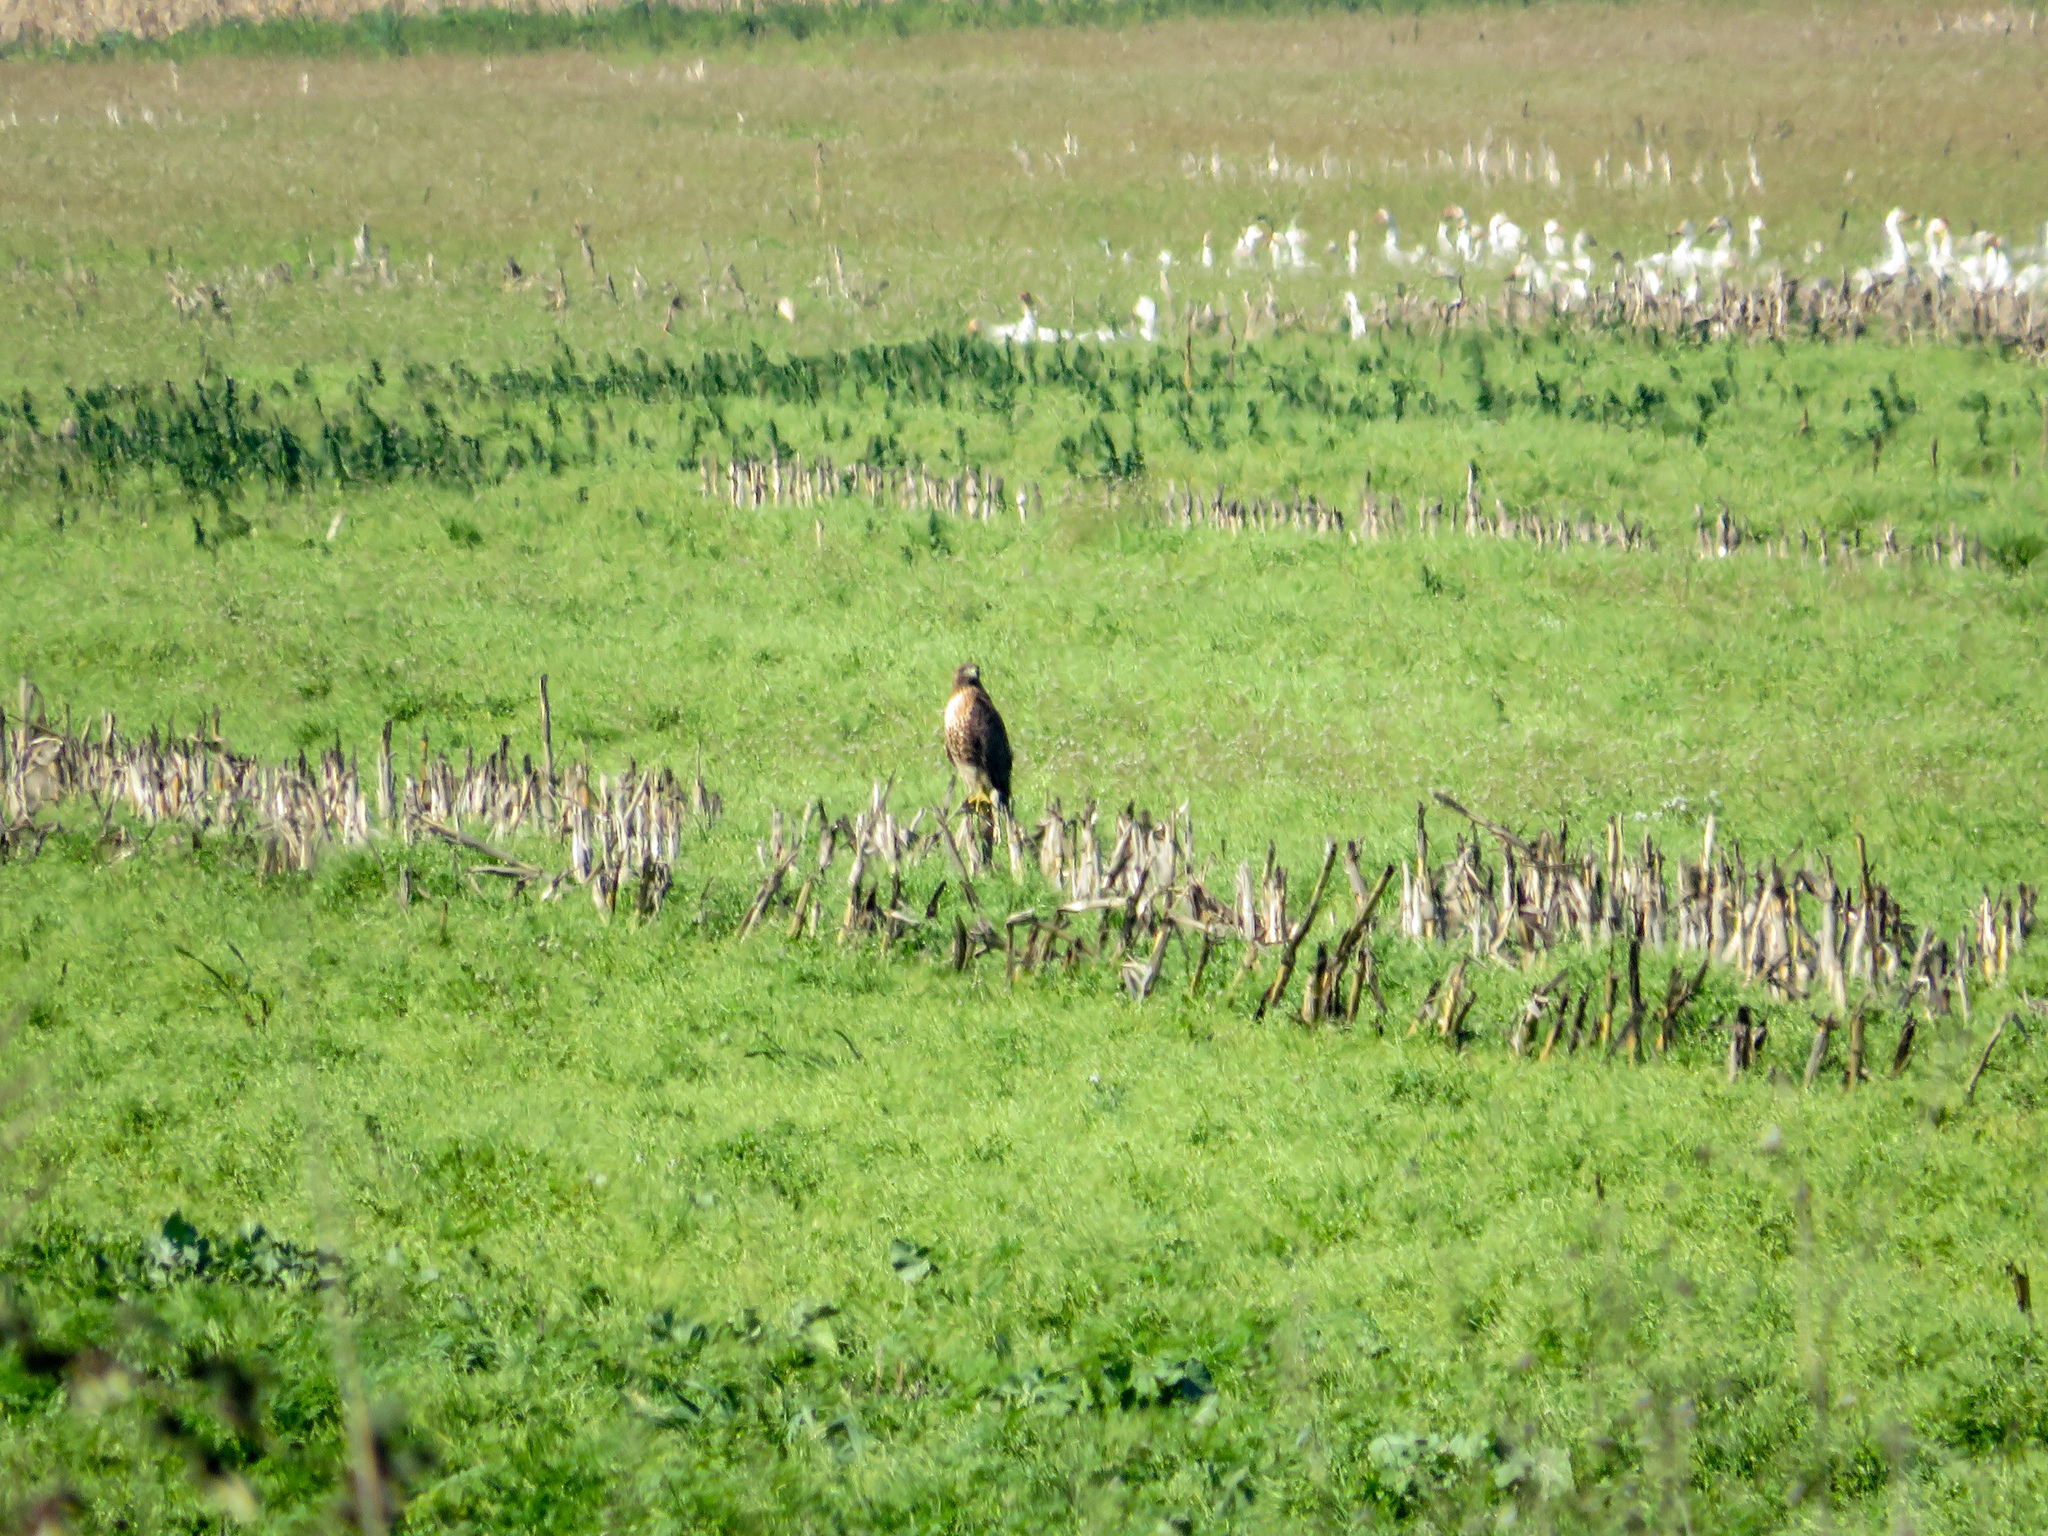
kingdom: Animalia
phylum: Chordata
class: Aves
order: Accipitriformes
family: Accipitridae
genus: Buteo
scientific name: Buteo jamaicensis
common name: Red-tailed hawk
